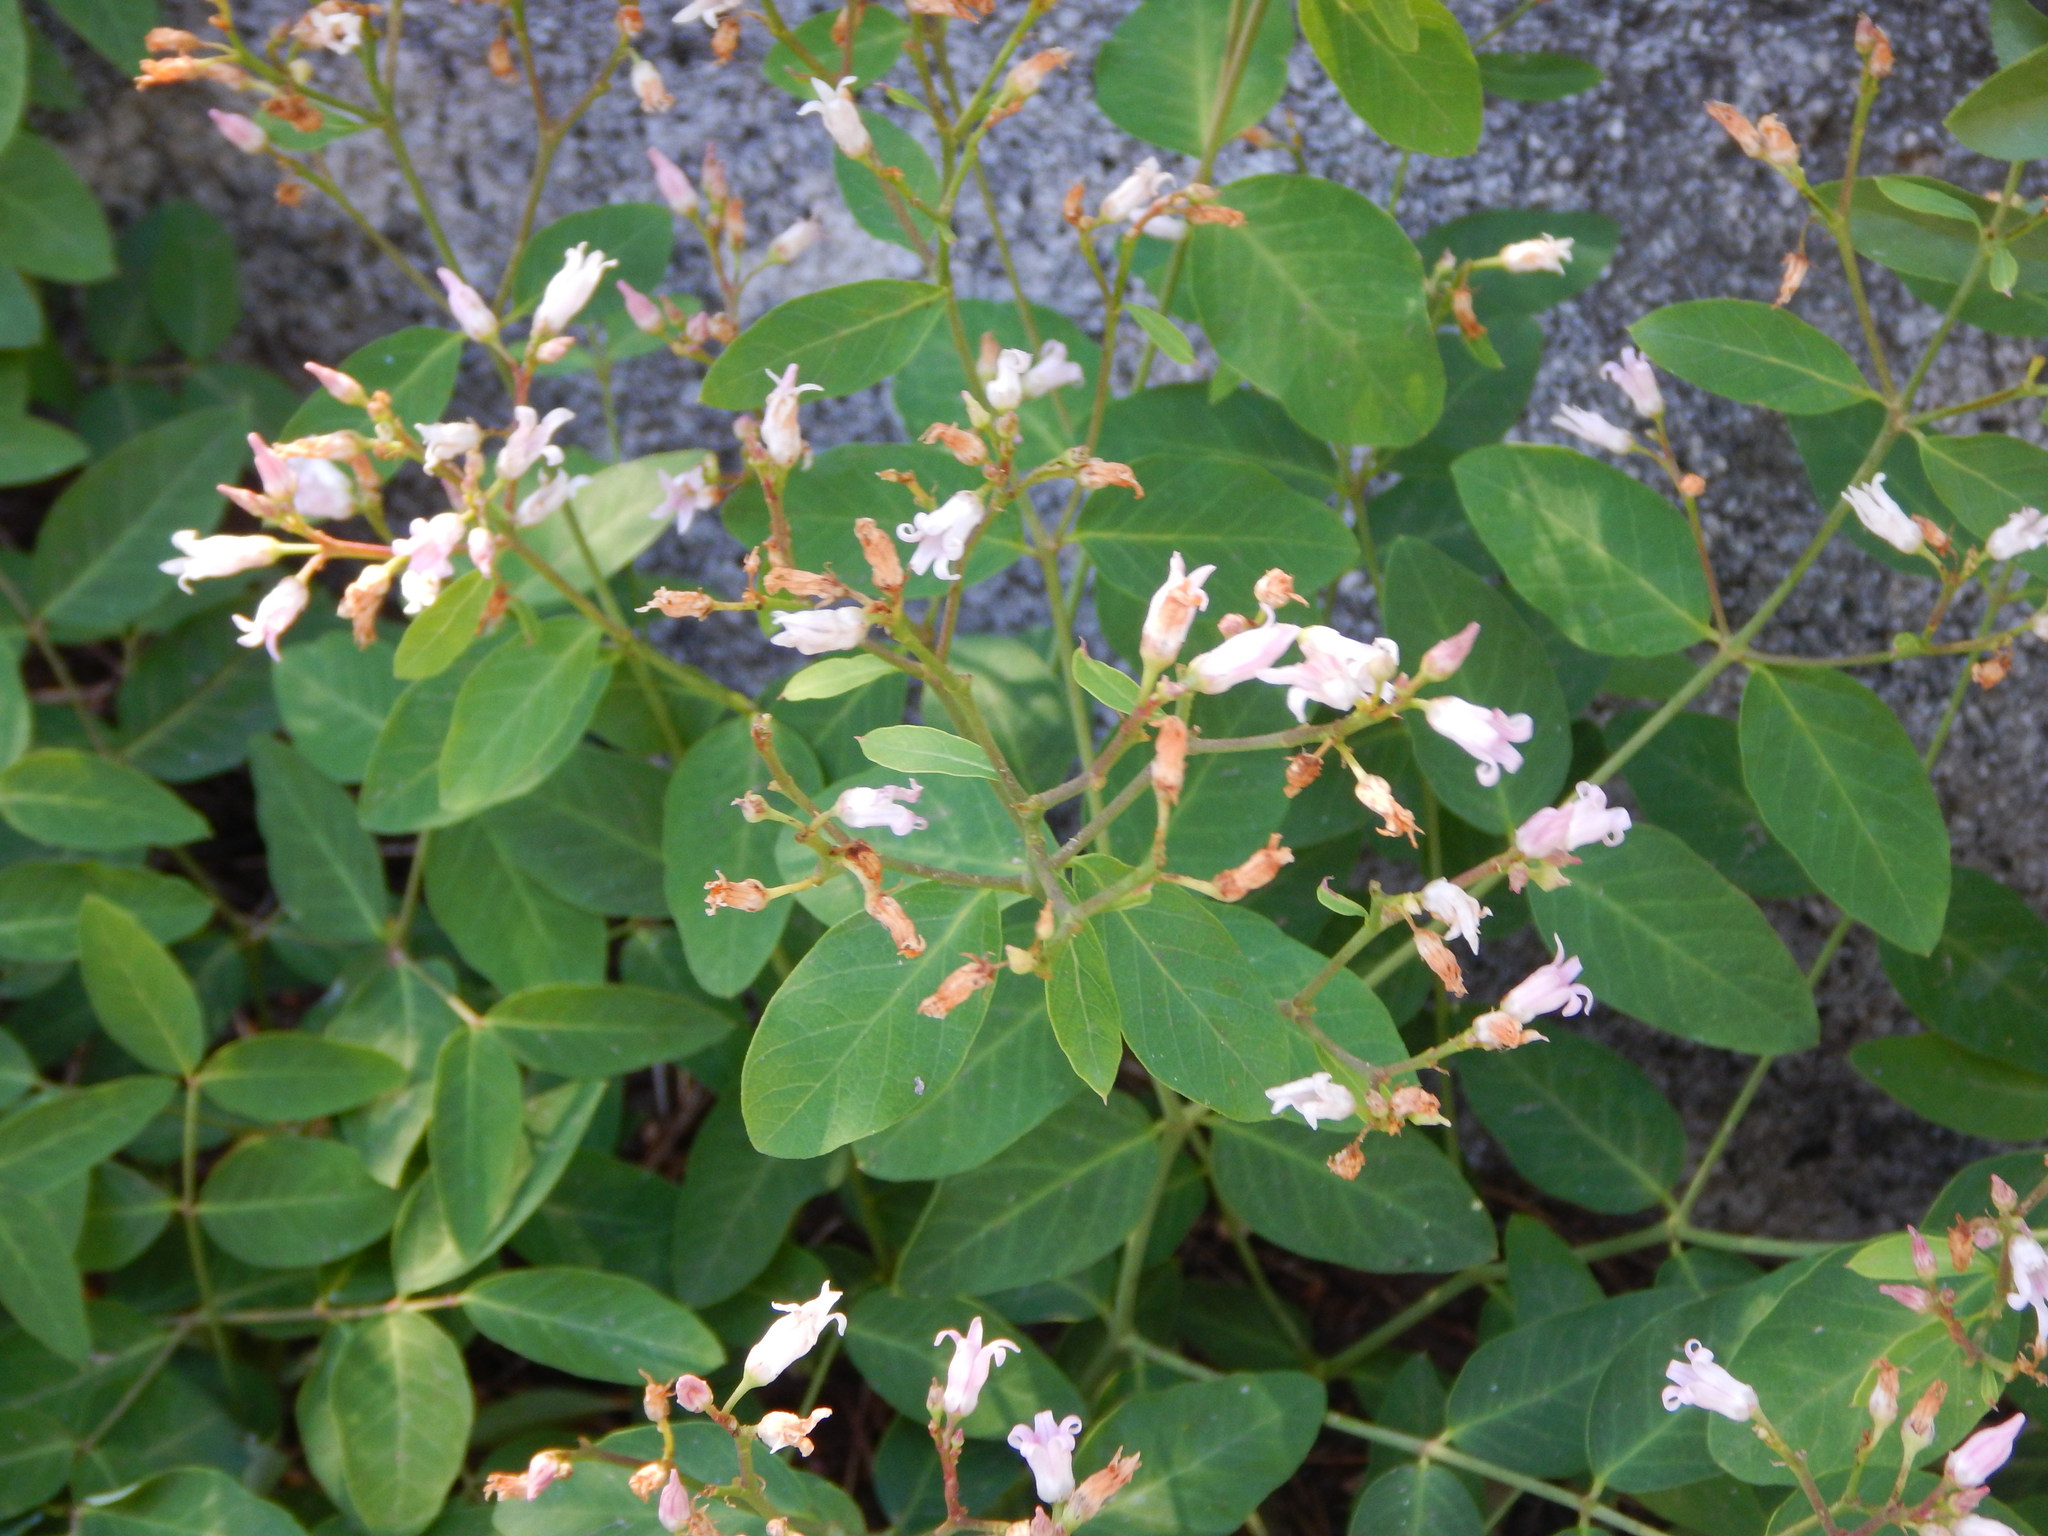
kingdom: Plantae
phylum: Tracheophyta
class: Magnoliopsida
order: Gentianales
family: Apocynaceae
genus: Apocynum
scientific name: Apocynum androsaemifolium
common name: Spreading dogbane
